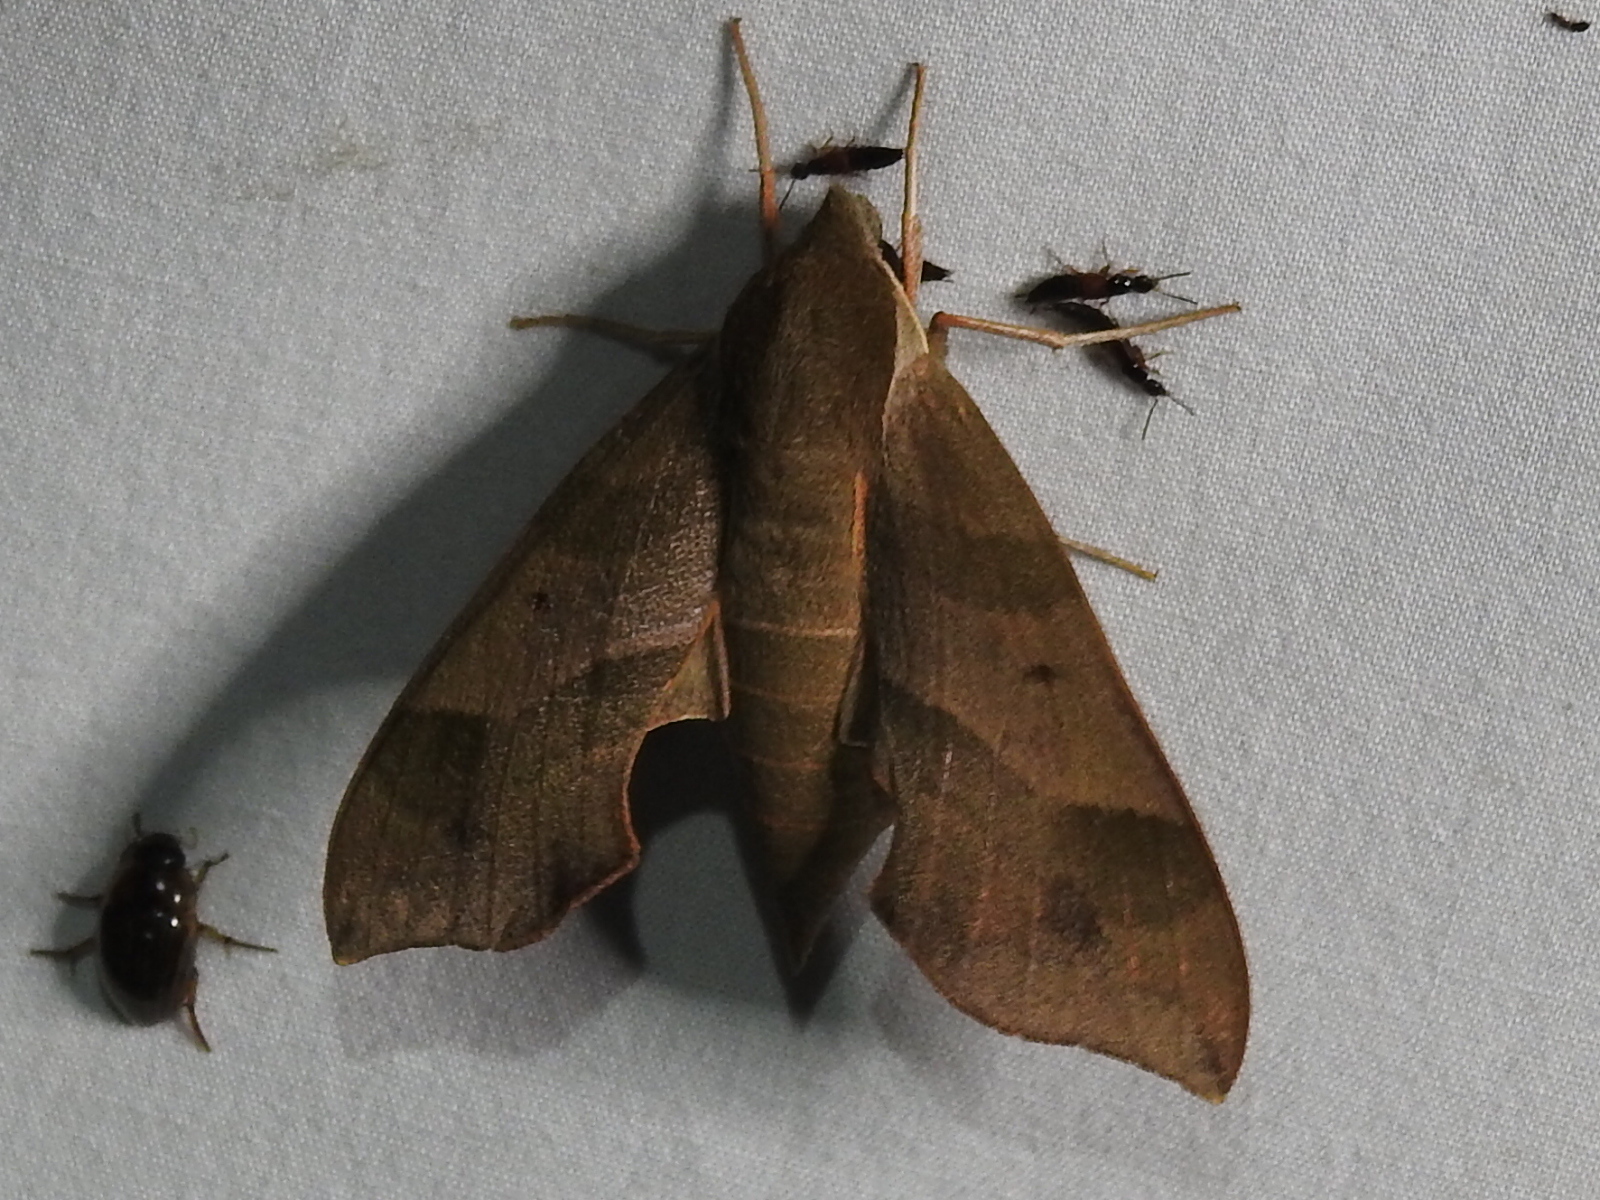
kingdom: Animalia
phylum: Arthropoda
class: Insecta
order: Lepidoptera
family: Sphingidae
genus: Darapsa
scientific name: Darapsa myron
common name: Hog sphinx
